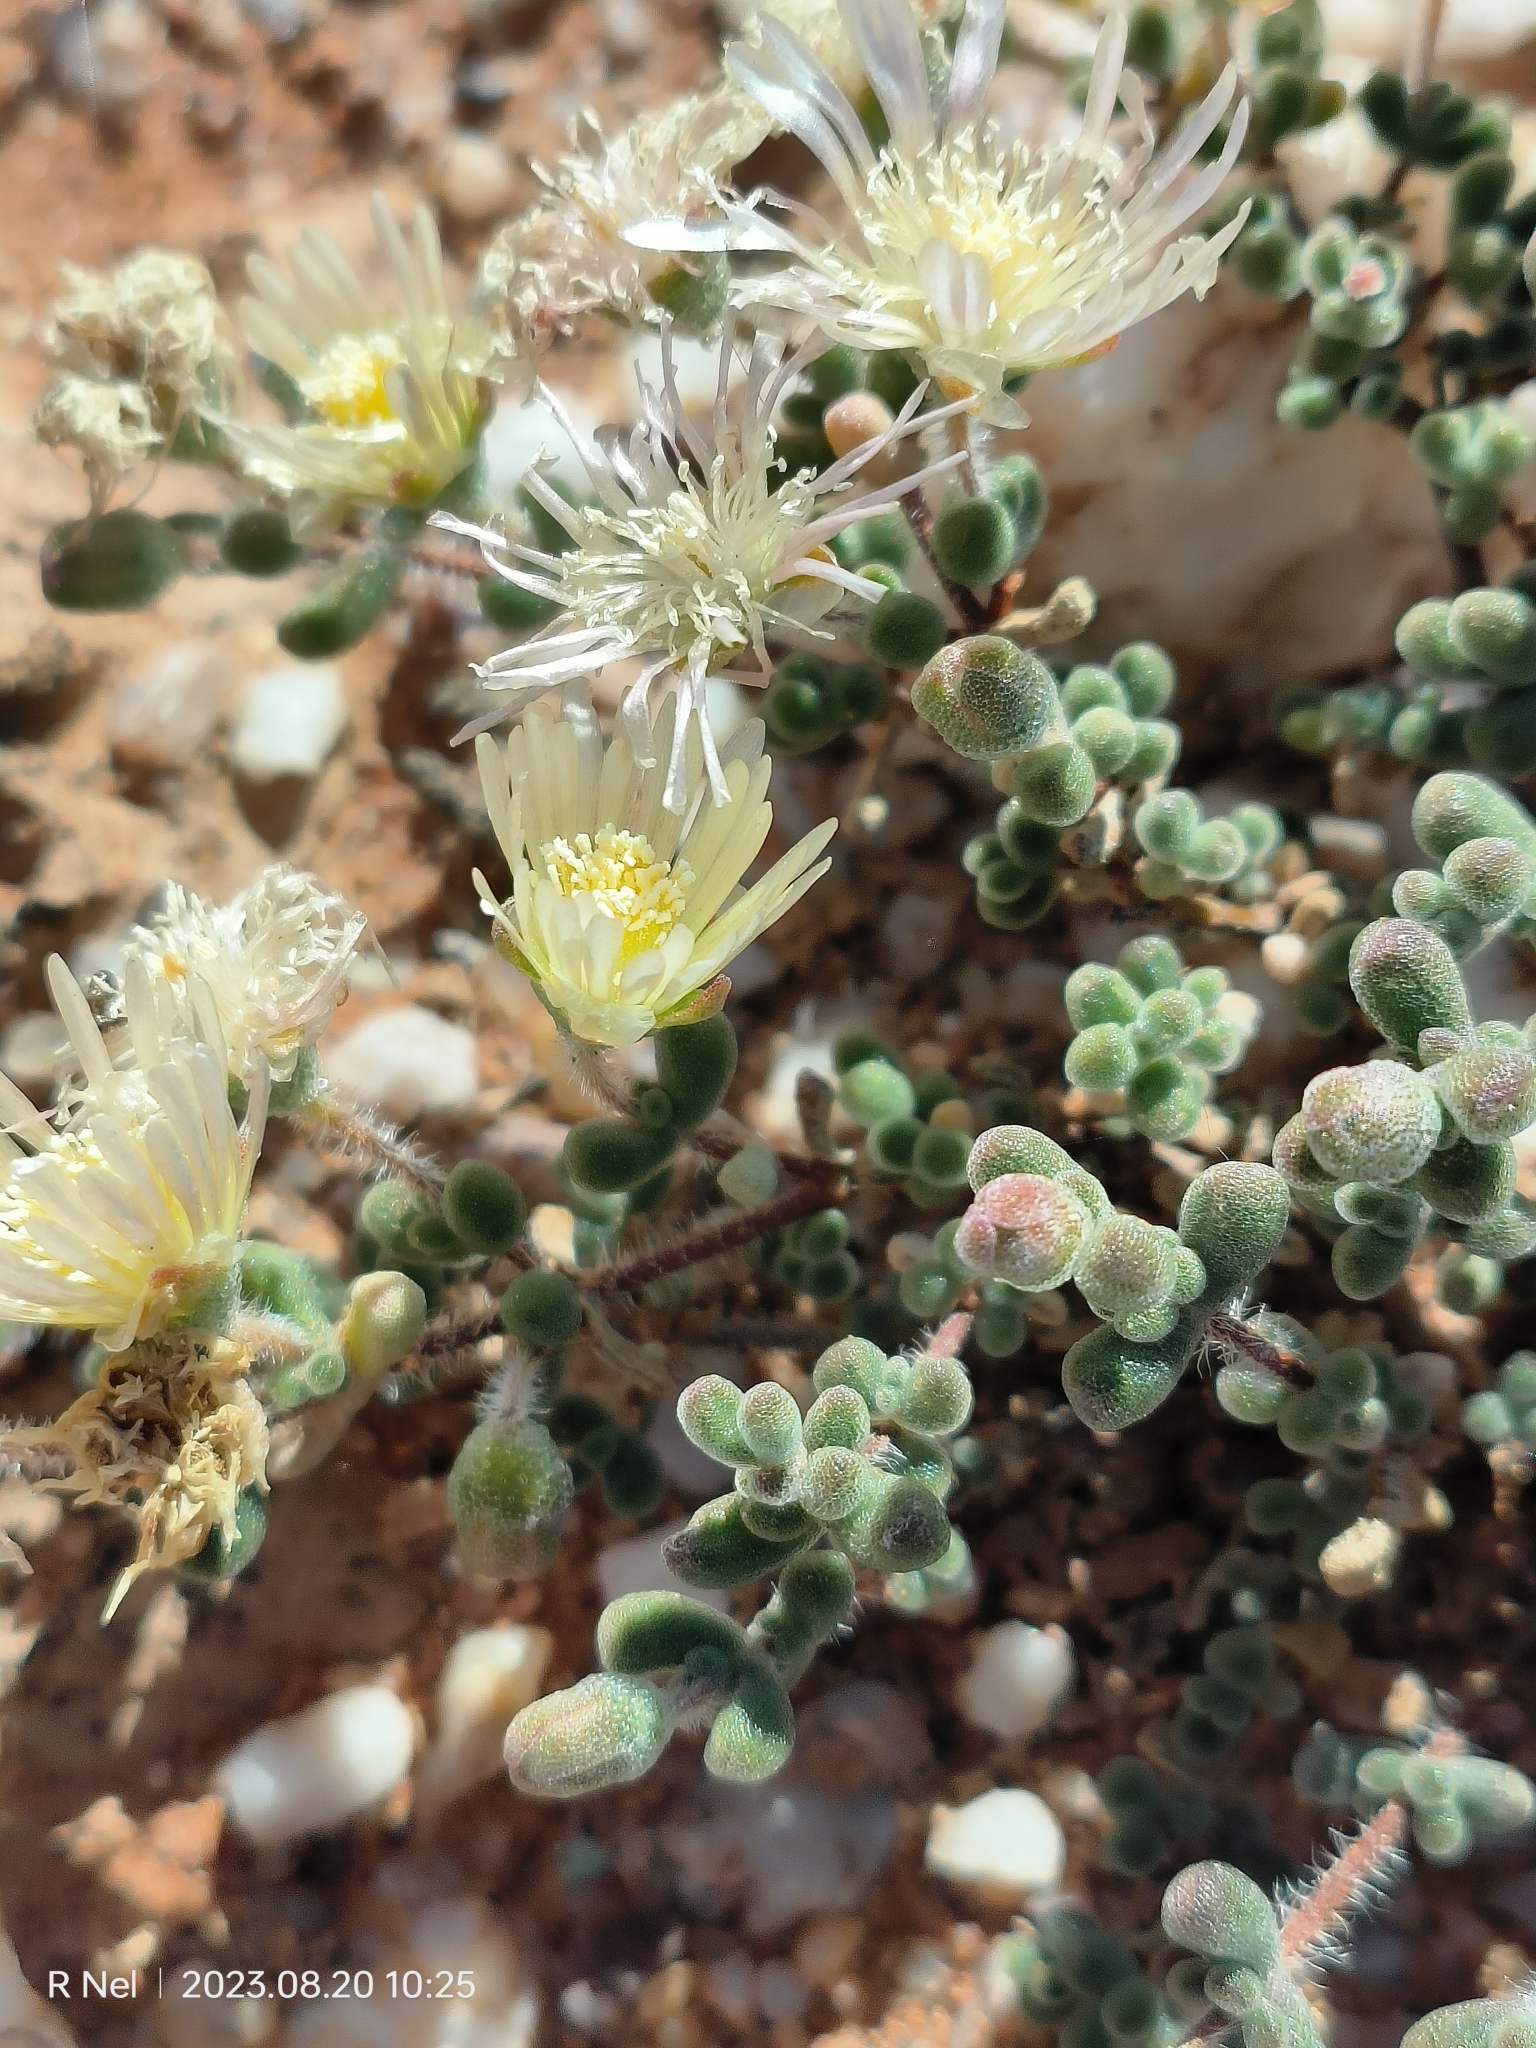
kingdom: Plantae
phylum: Tracheophyta
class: Magnoliopsida
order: Caryophyllales
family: Aizoaceae
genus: Drosanthemum
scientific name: Drosanthemum schoenlandianum
